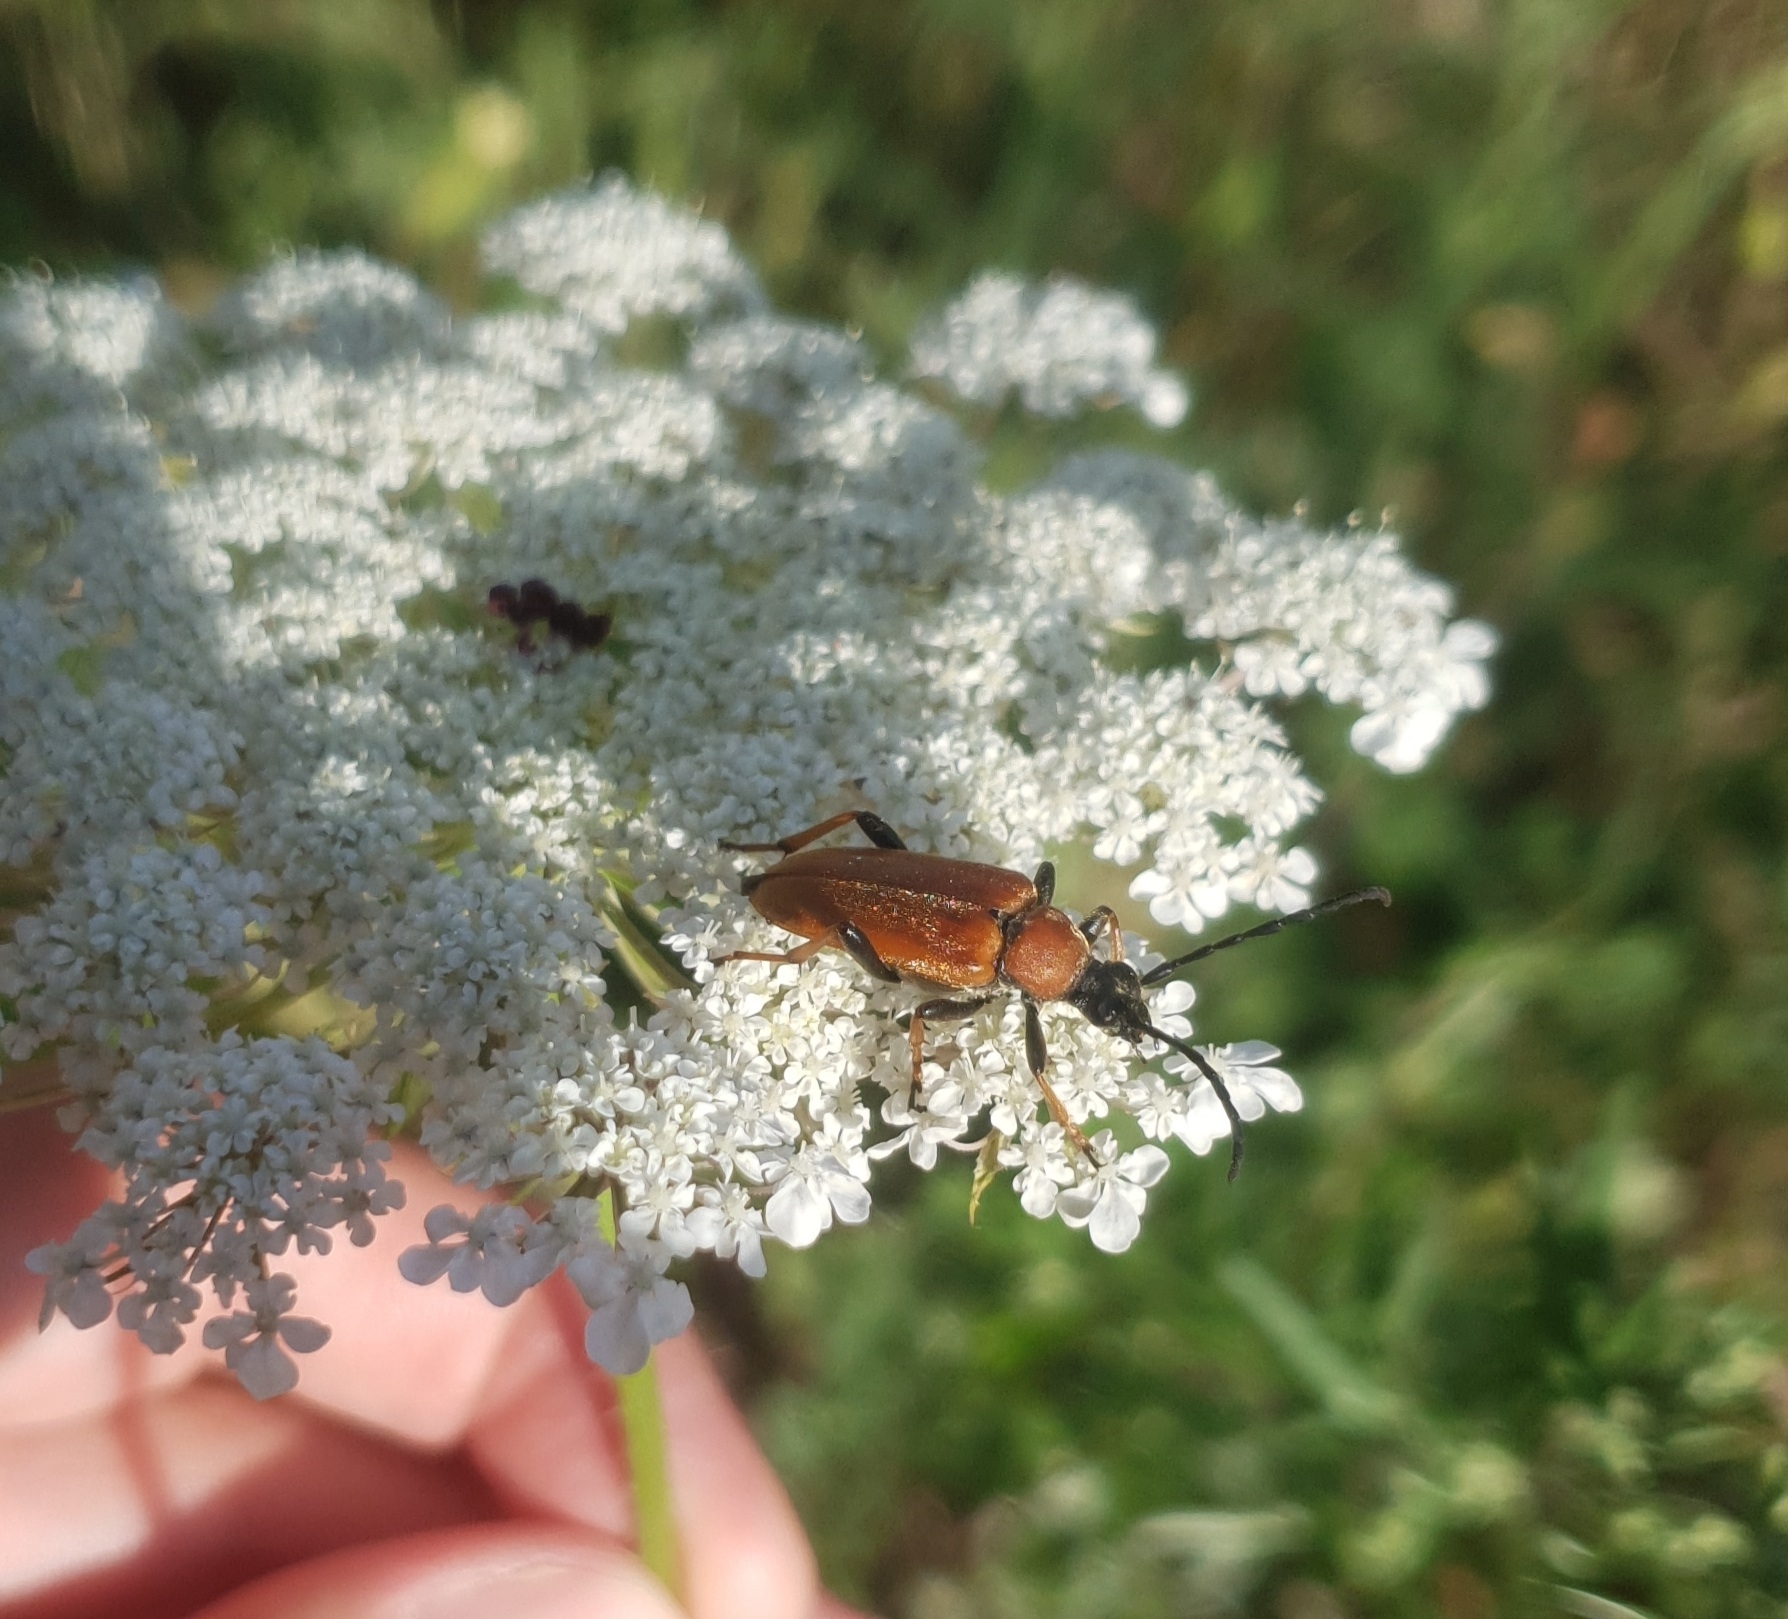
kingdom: Animalia
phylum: Arthropoda
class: Insecta
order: Coleoptera
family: Cerambycidae
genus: Stictoleptura
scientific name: Stictoleptura rubra
